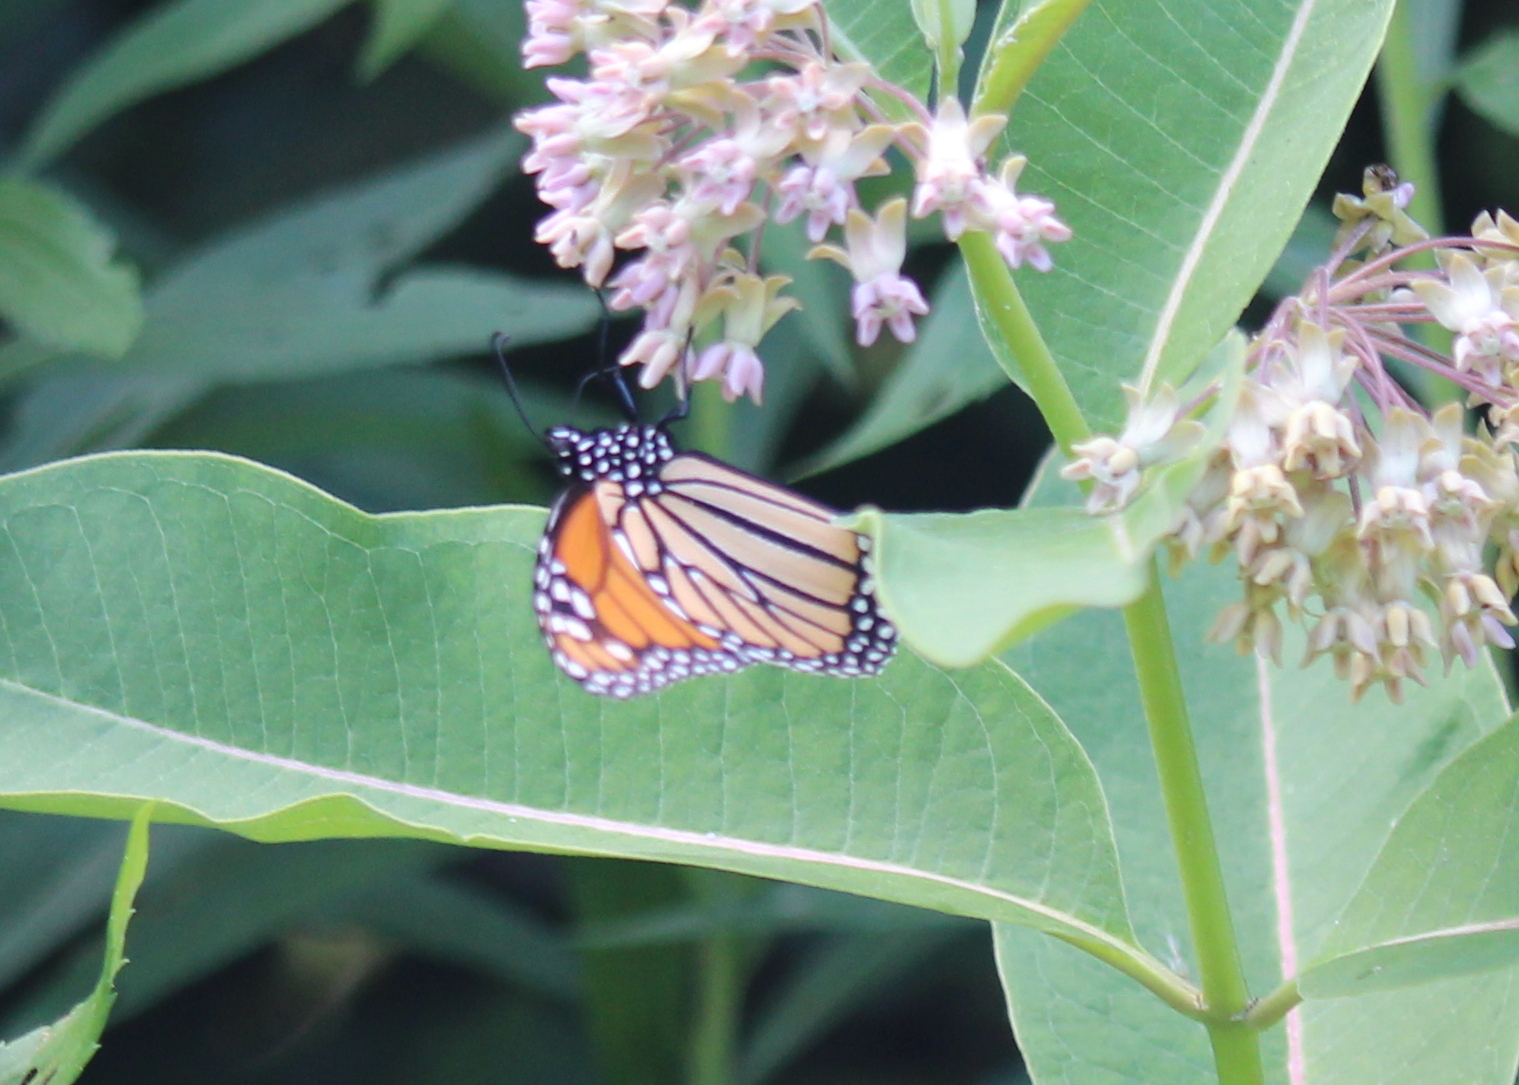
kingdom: Animalia
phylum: Arthropoda
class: Insecta
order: Lepidoptera
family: Nymphalidae
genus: Danaus
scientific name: Danaus plexippus
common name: Monarch
